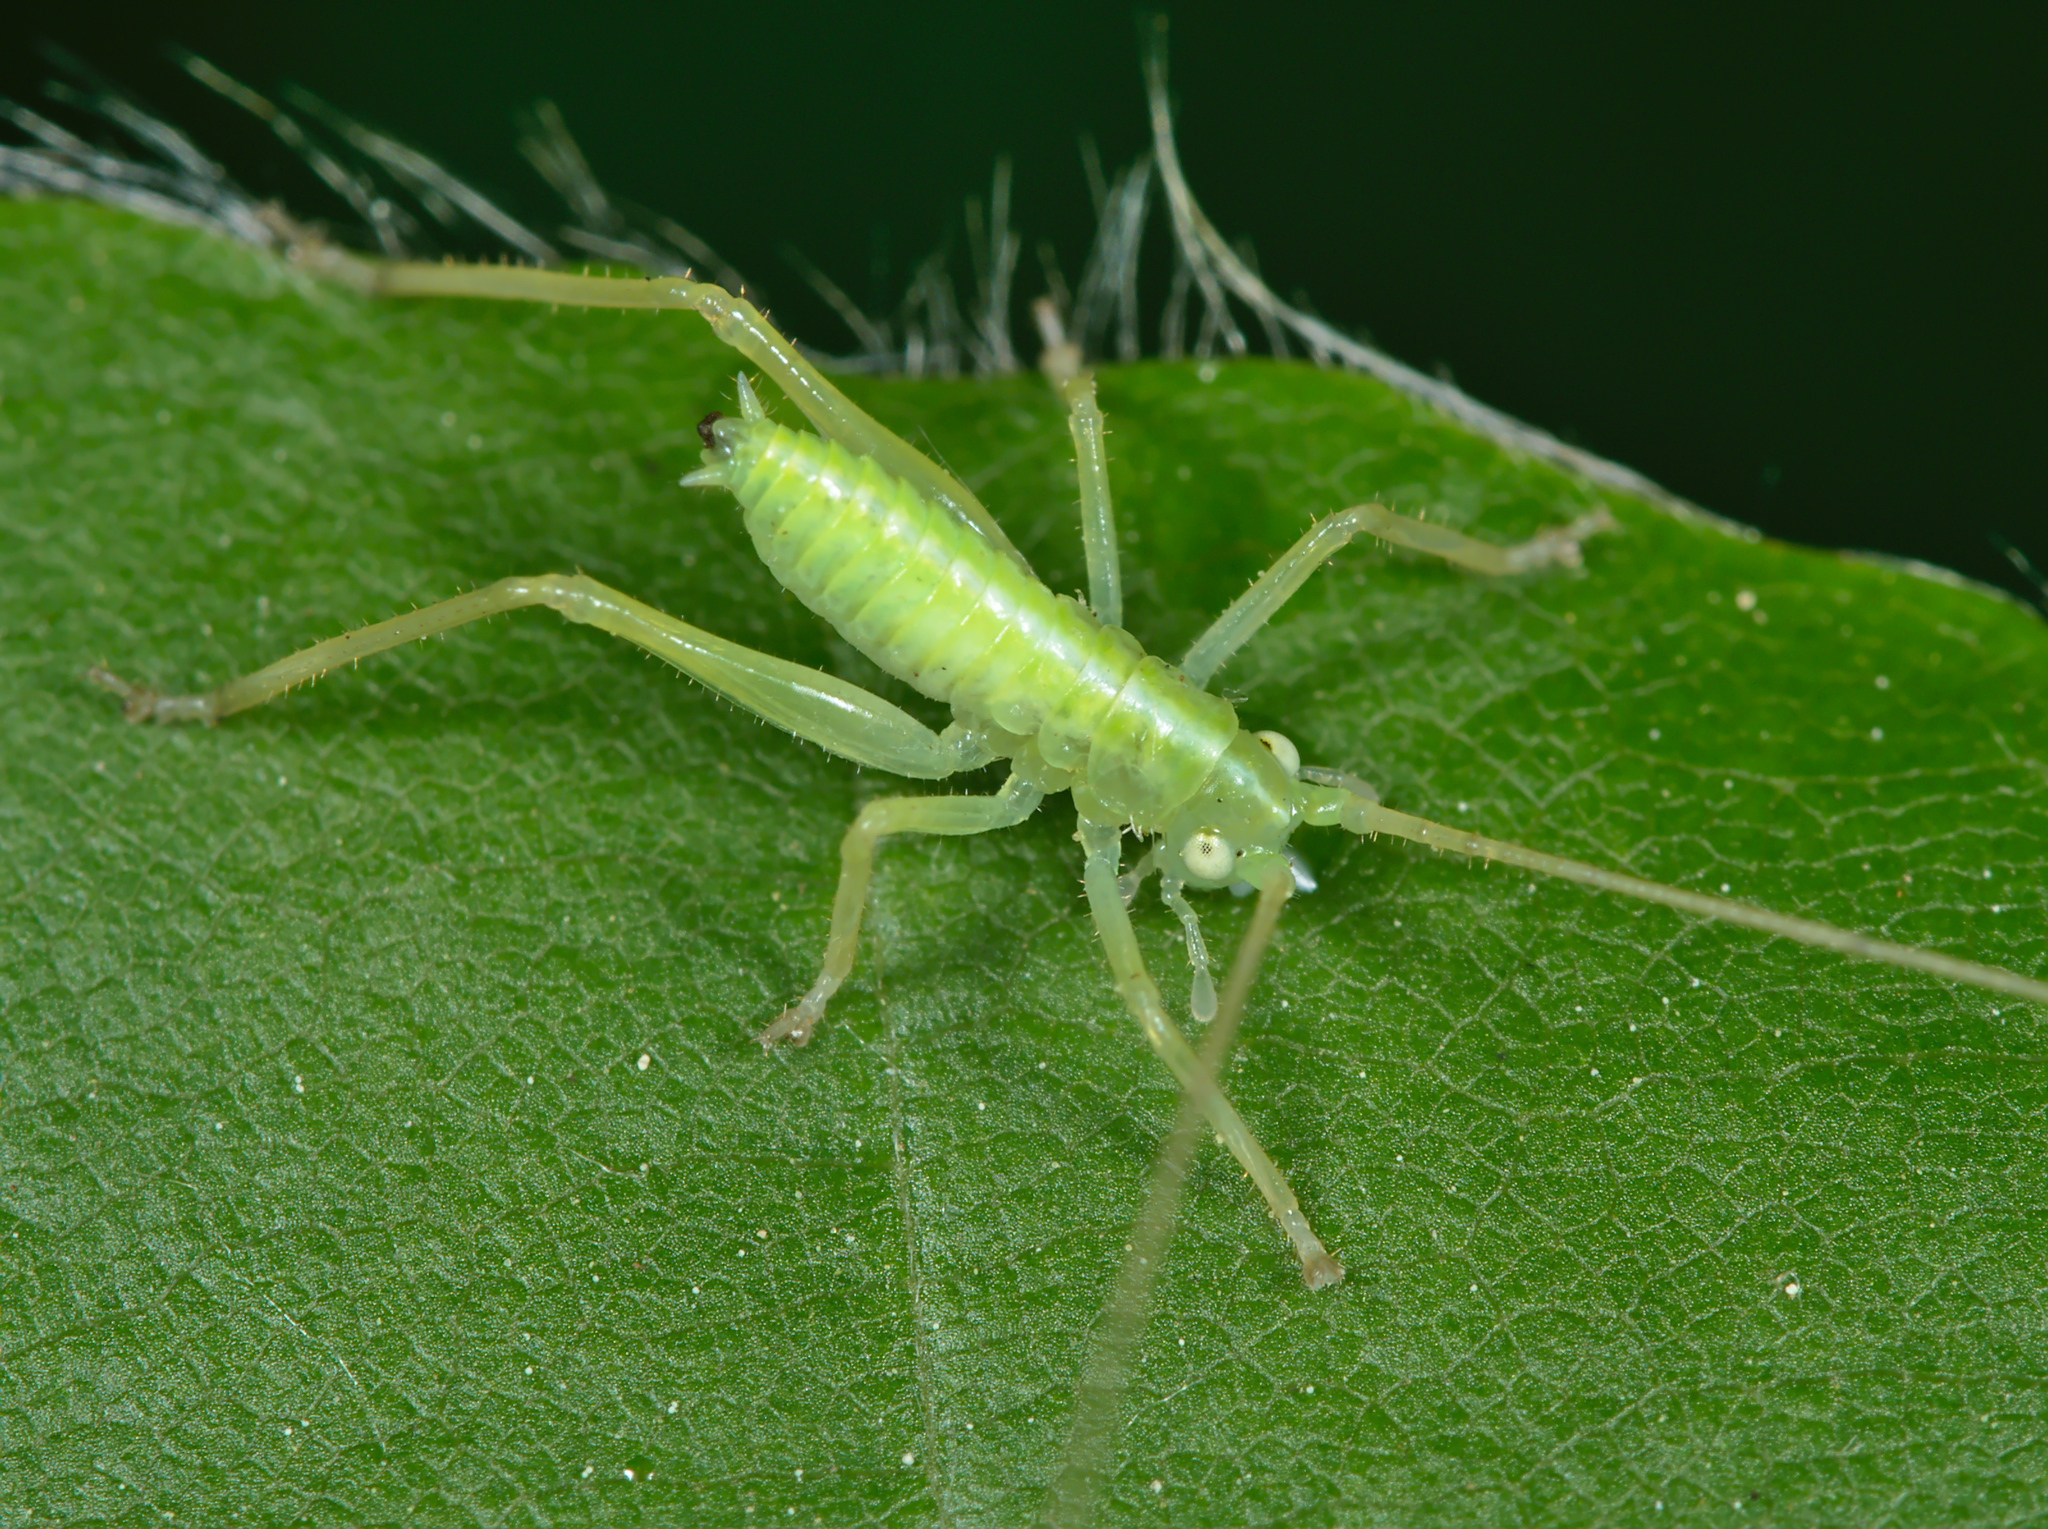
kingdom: Animalia
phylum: Arthropoda
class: Insecta
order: Orthoptera
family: Tettigoniidae
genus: Meconema
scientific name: Meconema
